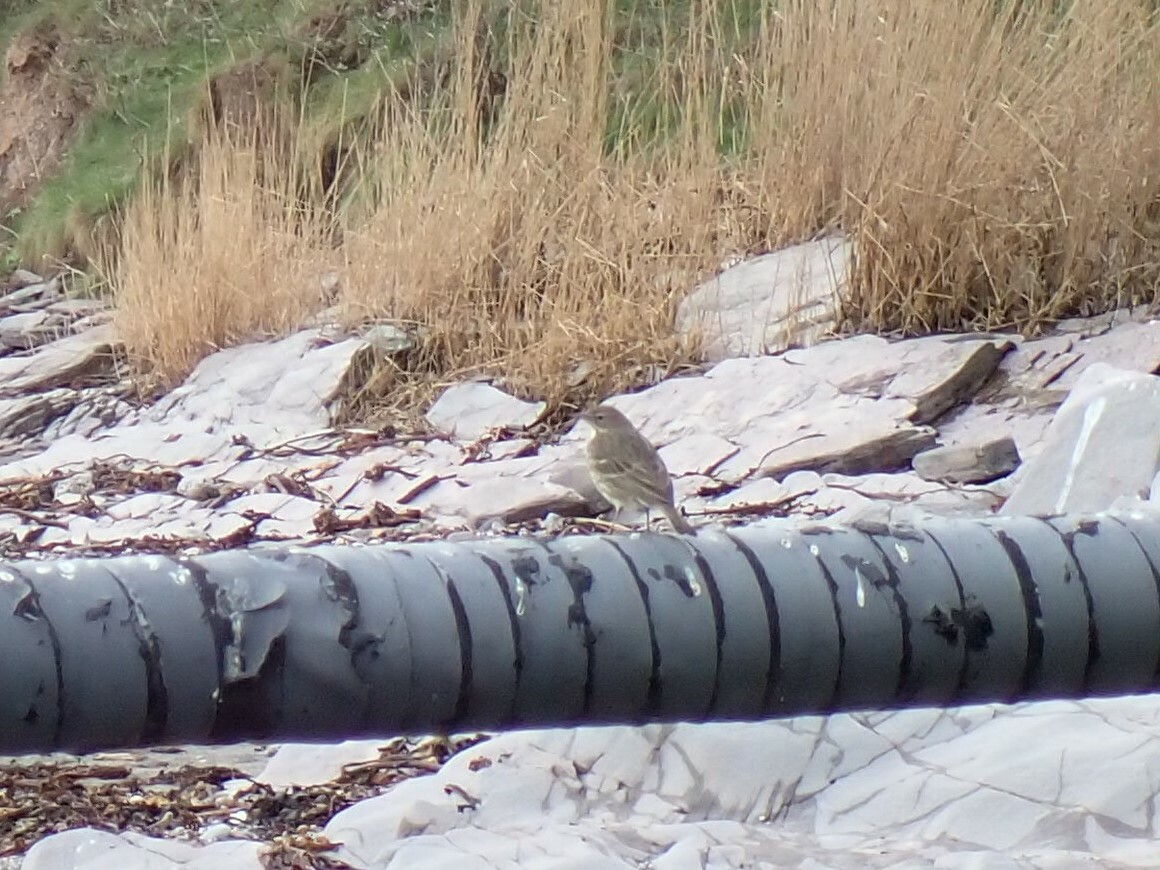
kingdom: Animalia
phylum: Chordata
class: Aves
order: Passeriformes
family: Motacillidae
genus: Anthus
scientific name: Anthus petrosus
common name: Eurasian rock pipit
